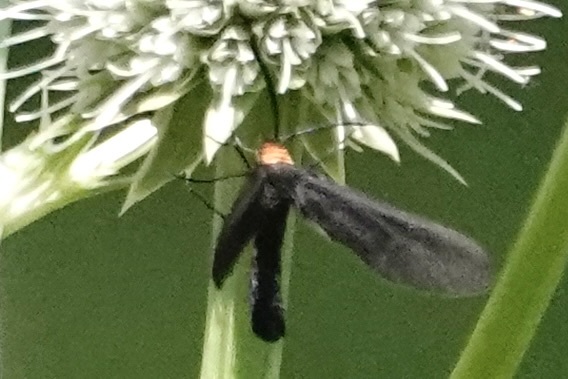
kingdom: Animalia
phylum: Arthropoda
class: Insecta
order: Lepidoptera
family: Zygaenidae
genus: Harrisina
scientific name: Harrisina americana
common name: Grapeleaf skeletonizer moth
